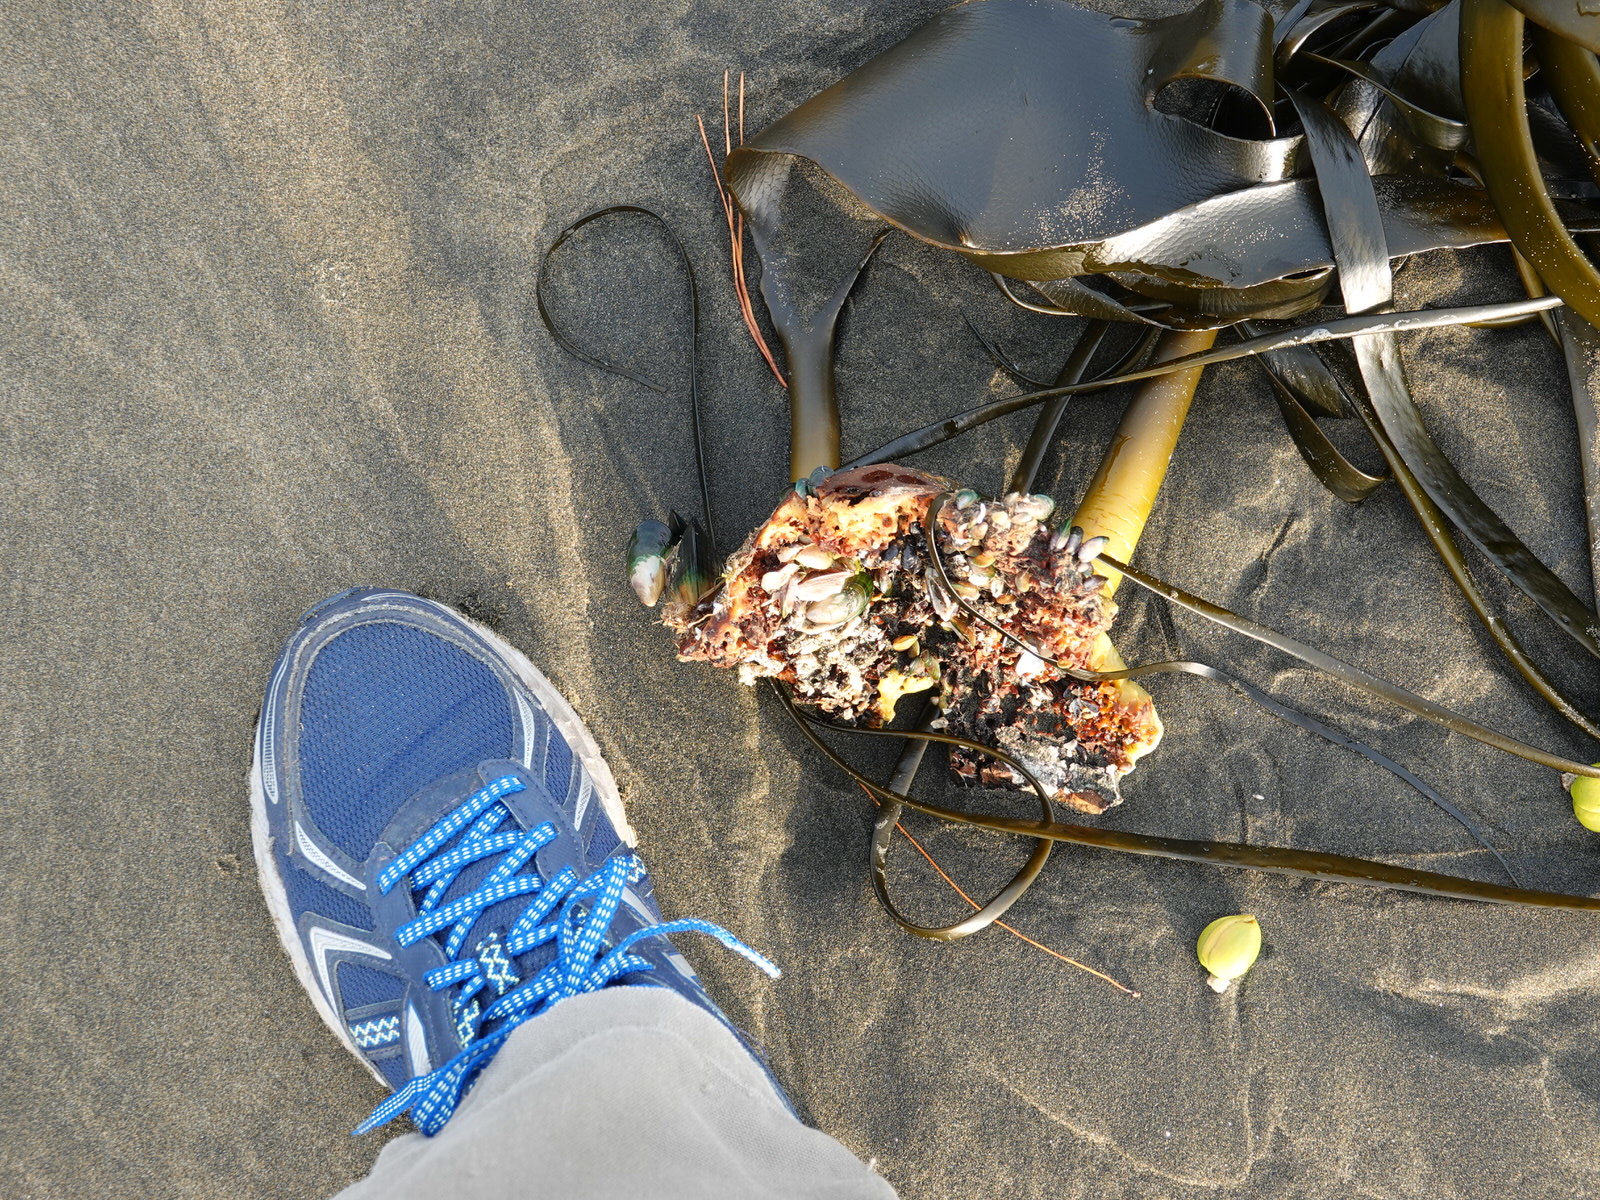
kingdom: Animalia
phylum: Mollusca
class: Bivalvia
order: Mytilida
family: Mytilidae
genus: Perna
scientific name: Perna canaliculus
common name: New zealand greenshelltm
